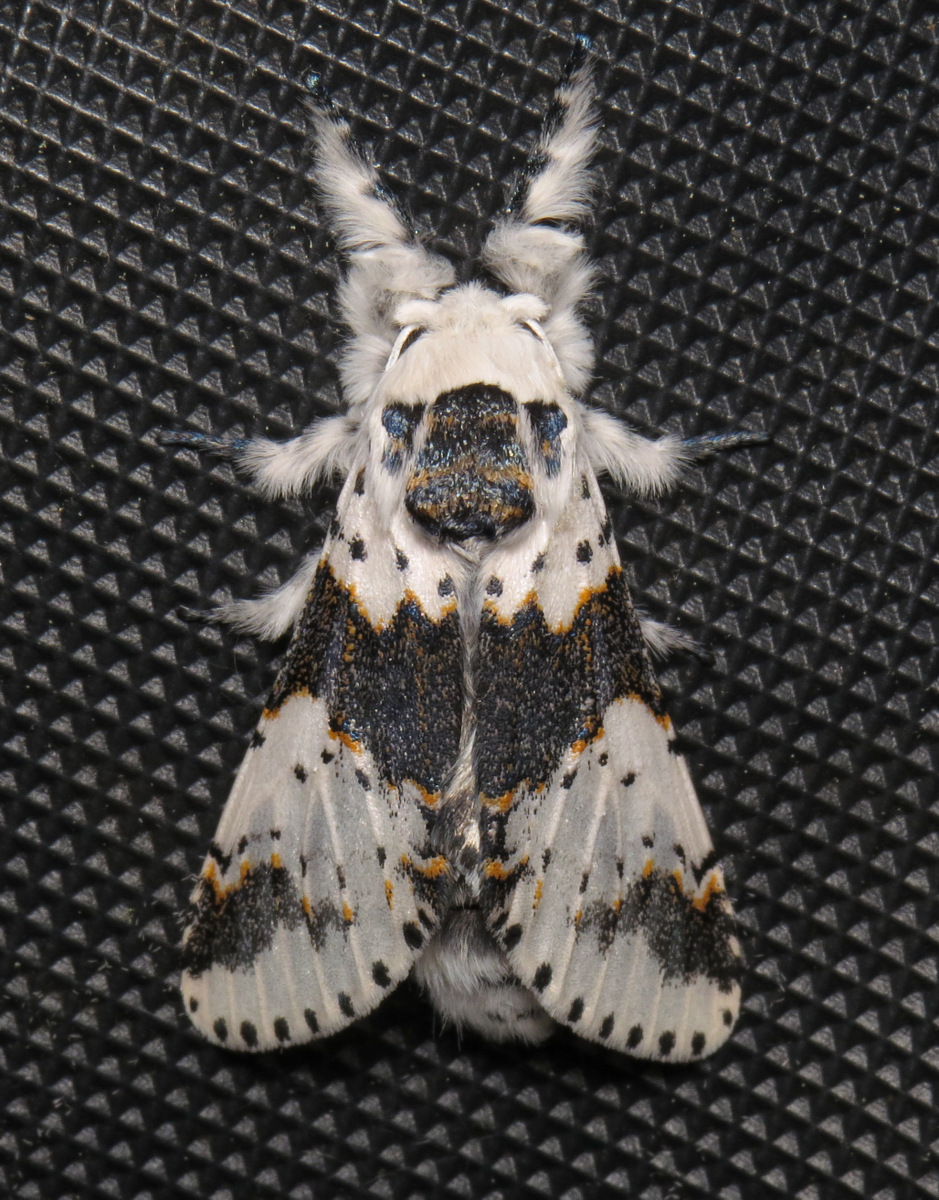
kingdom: Animalia
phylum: Arthropoda
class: Insecta
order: Lepidoptera
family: Notodontidae
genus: Furcula
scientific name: Furcula borealis
